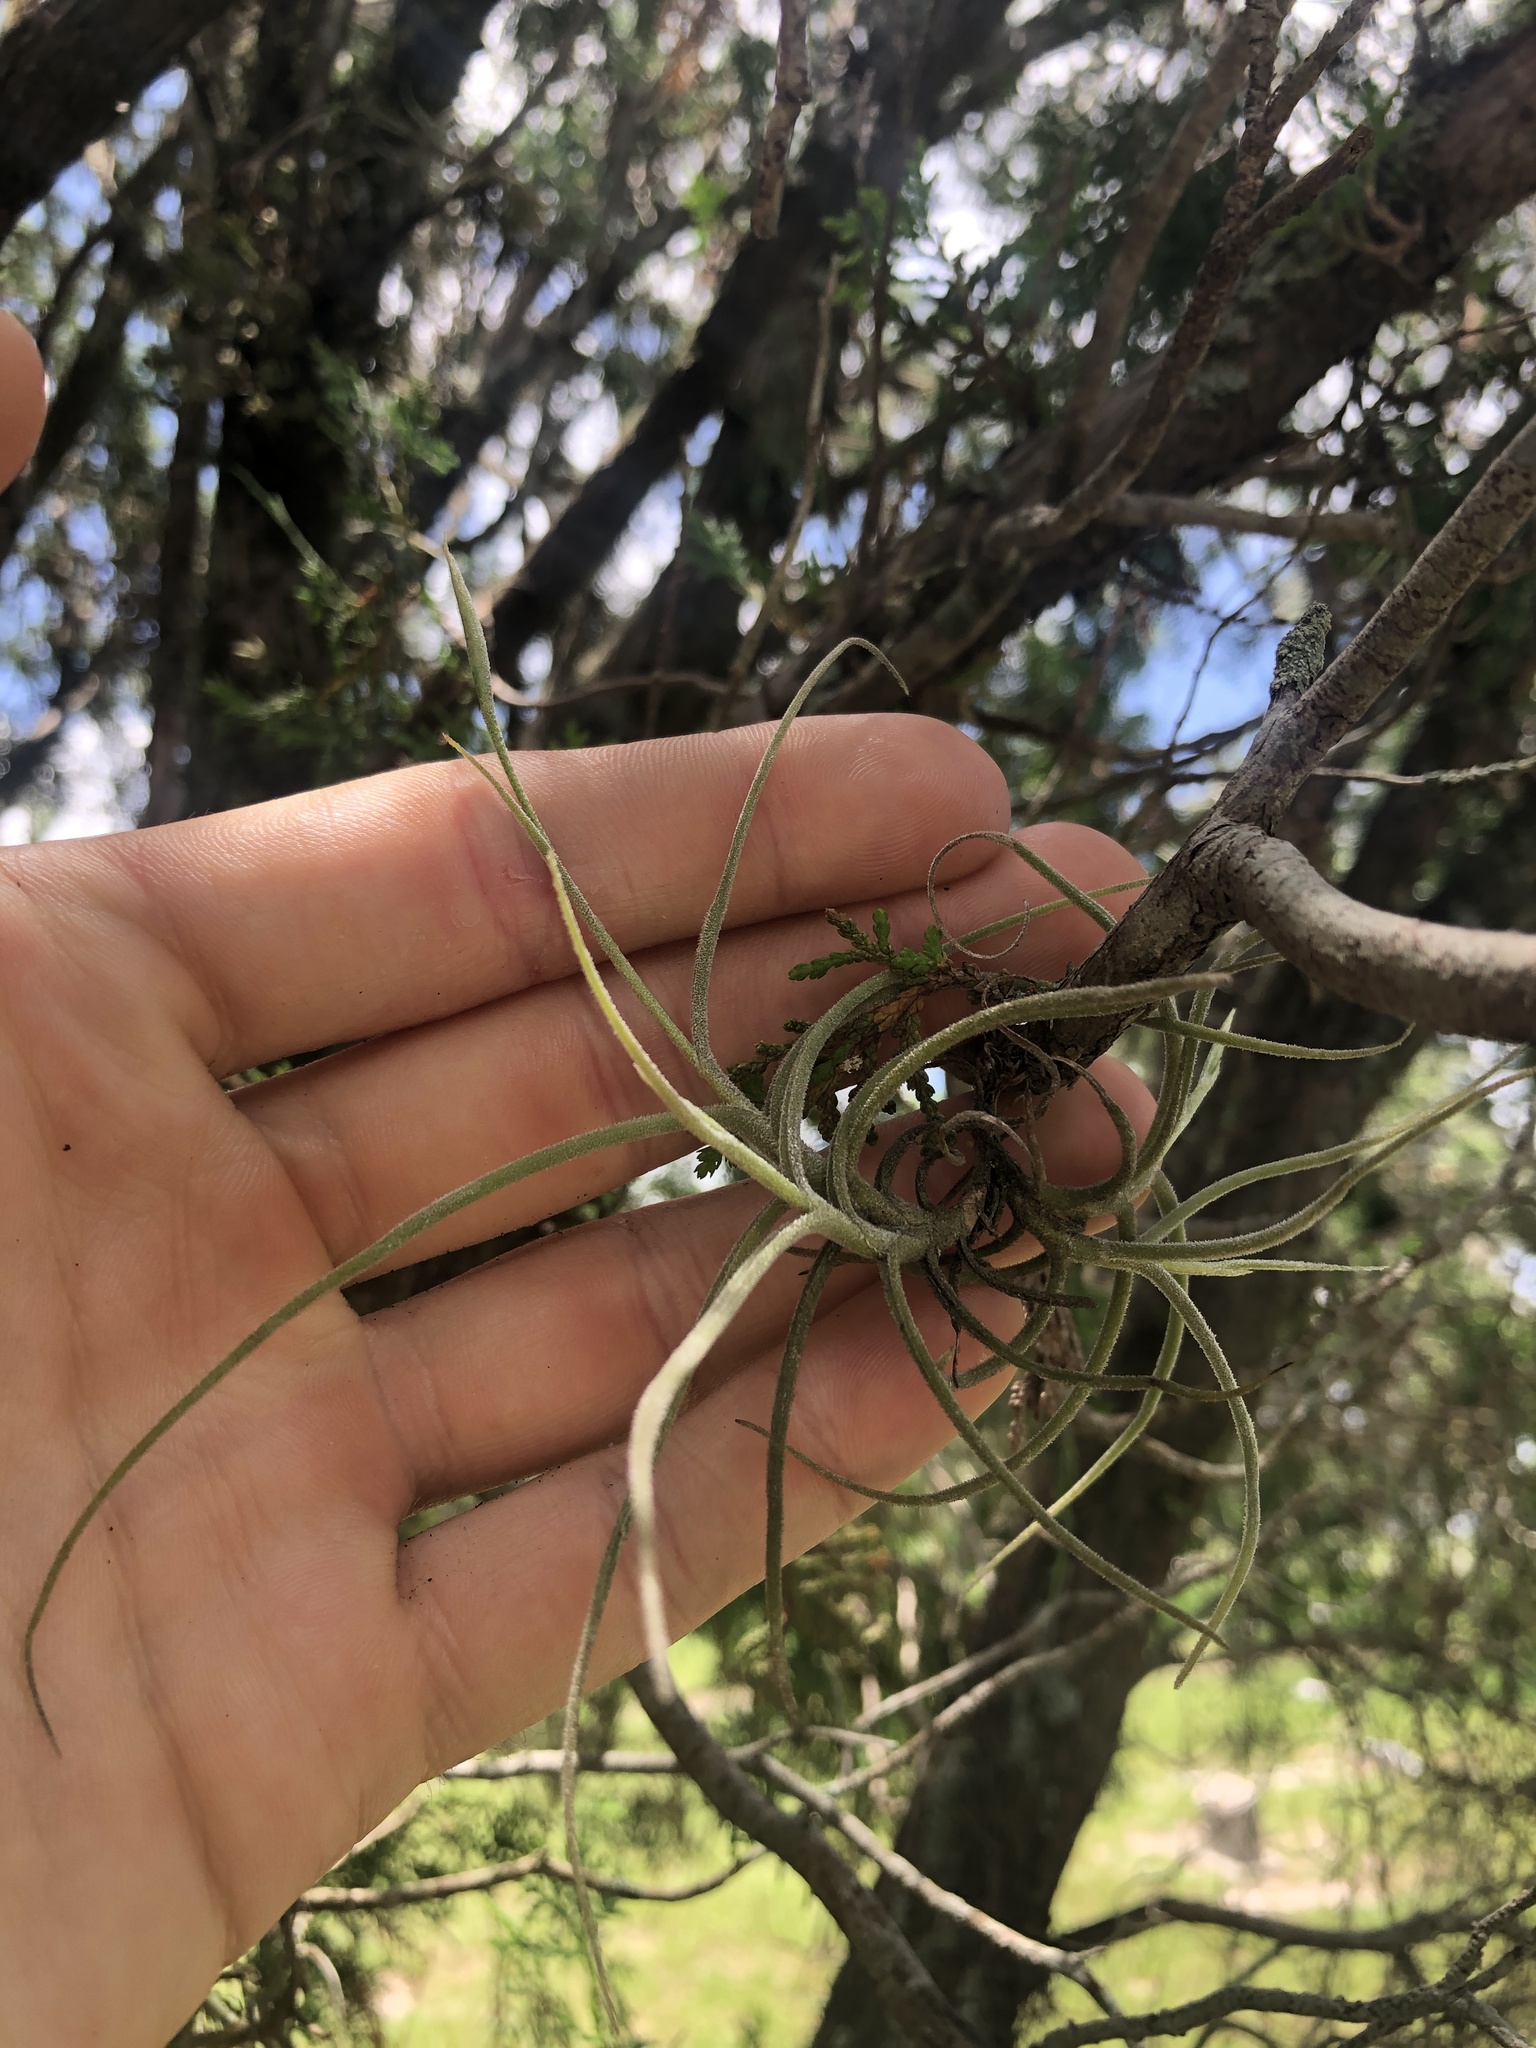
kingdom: Plantae
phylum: Tracheophyta
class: Liliopsida
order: Poales
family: Bromeliaceae
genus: Tillandsia
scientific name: Tillandsia recurvata
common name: Small ballmoss
